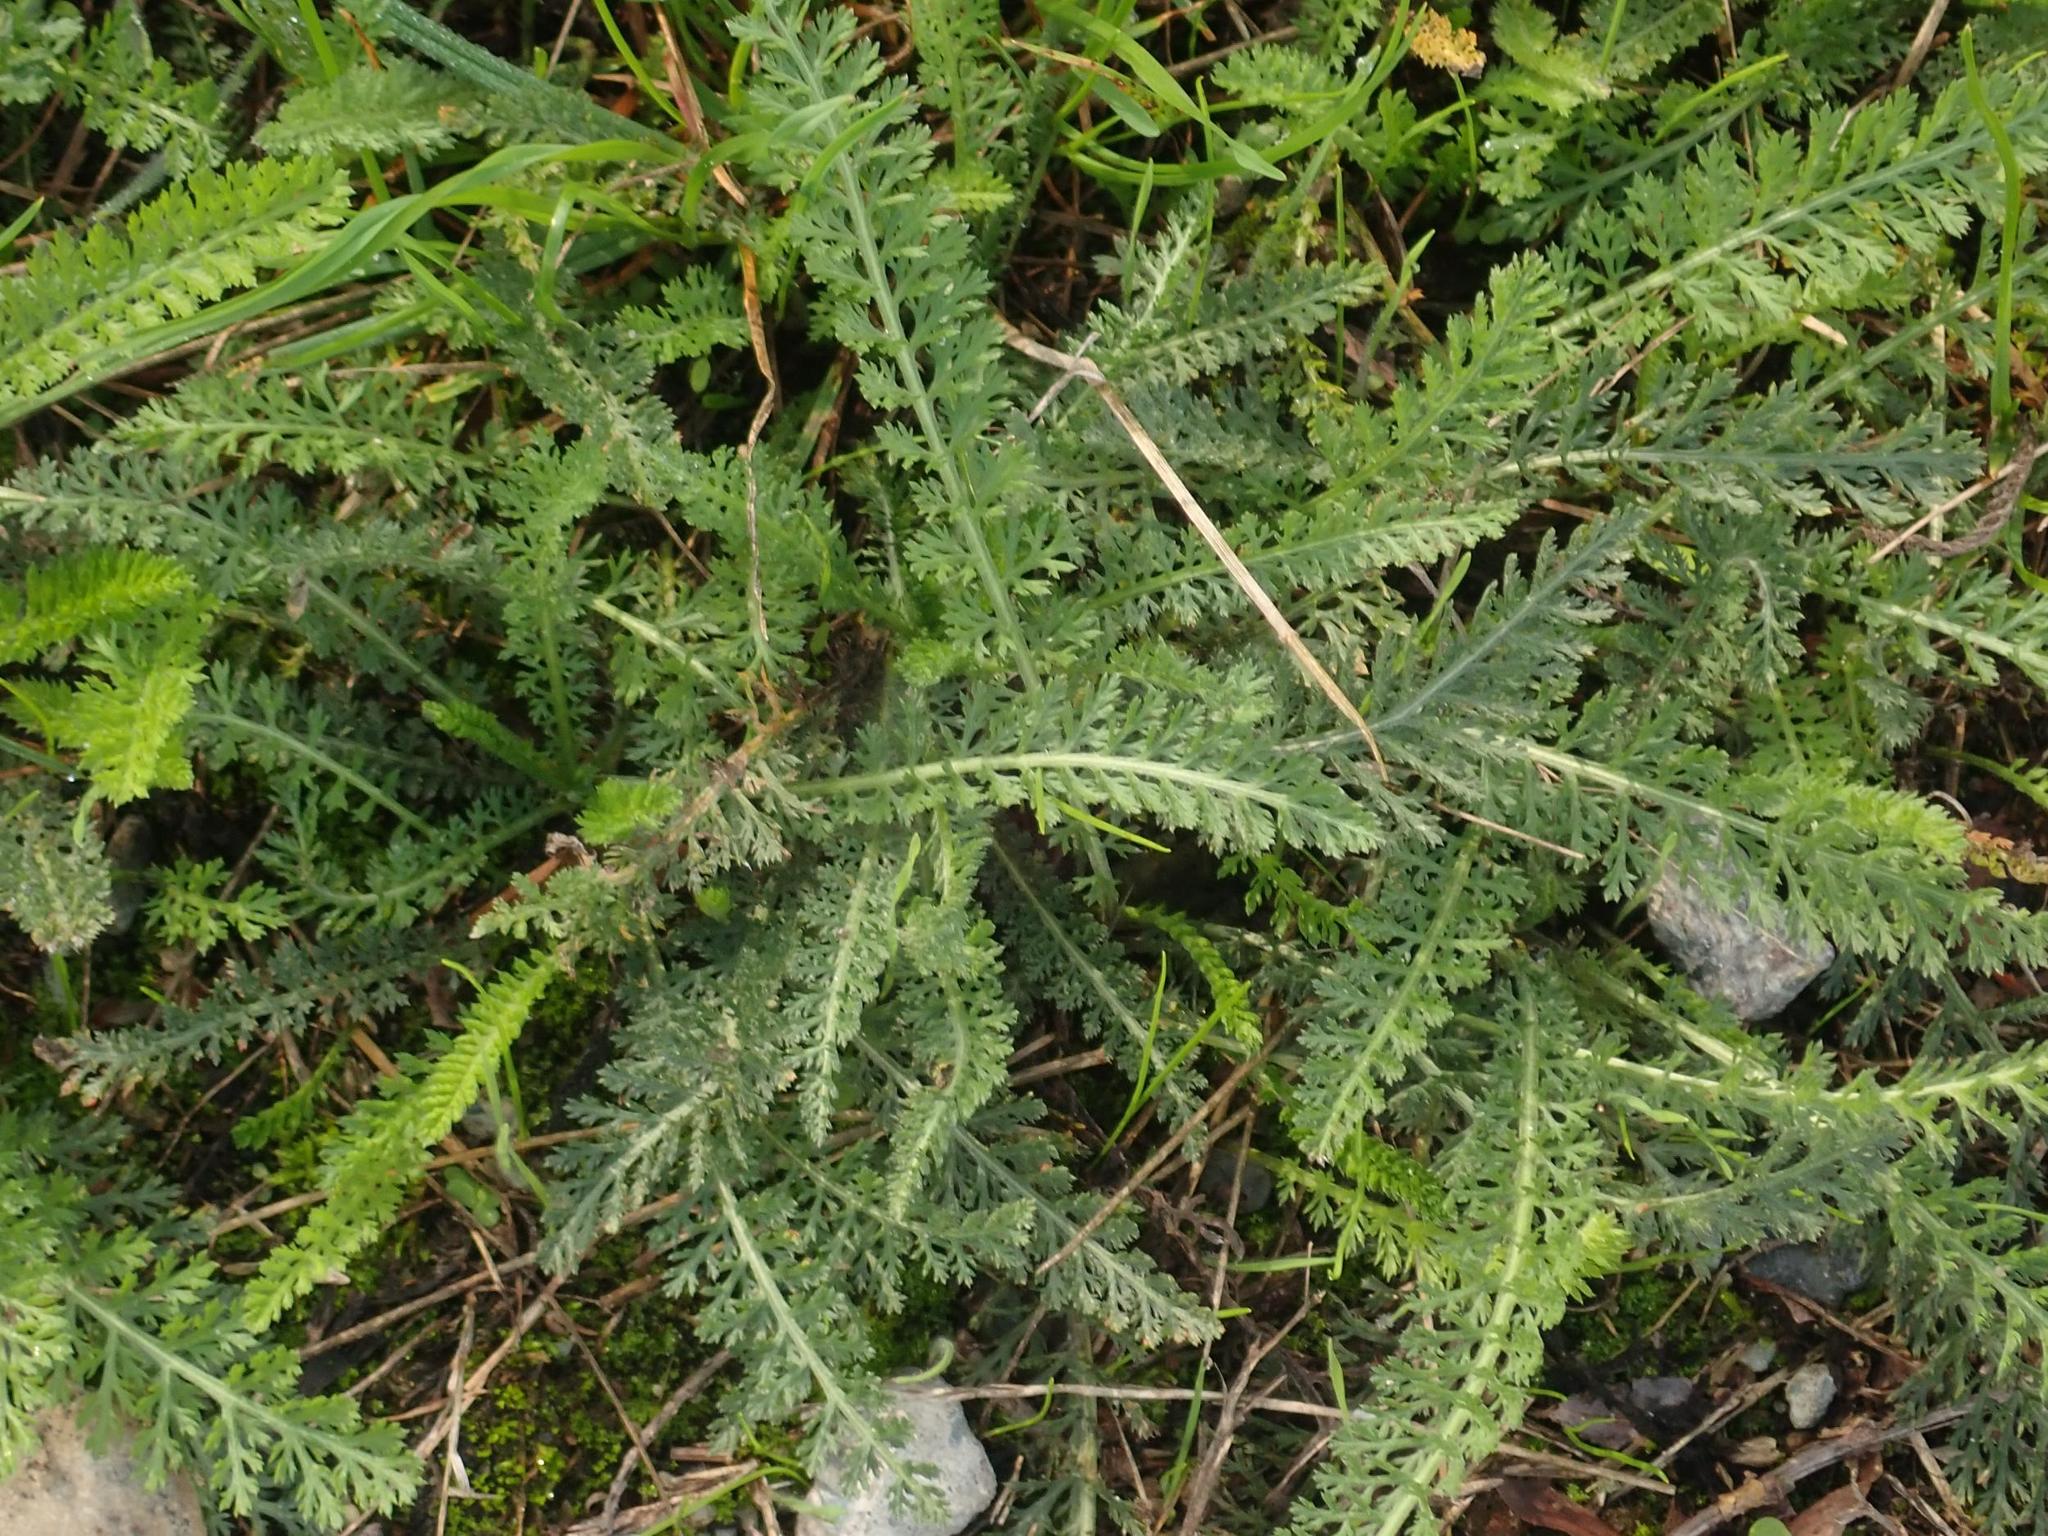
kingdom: Plantae
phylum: Tracheophyta
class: Magnoliopsida
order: Asterales
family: Asteraceae
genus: Achillea
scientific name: Achillea millefolium
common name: Yarrow
